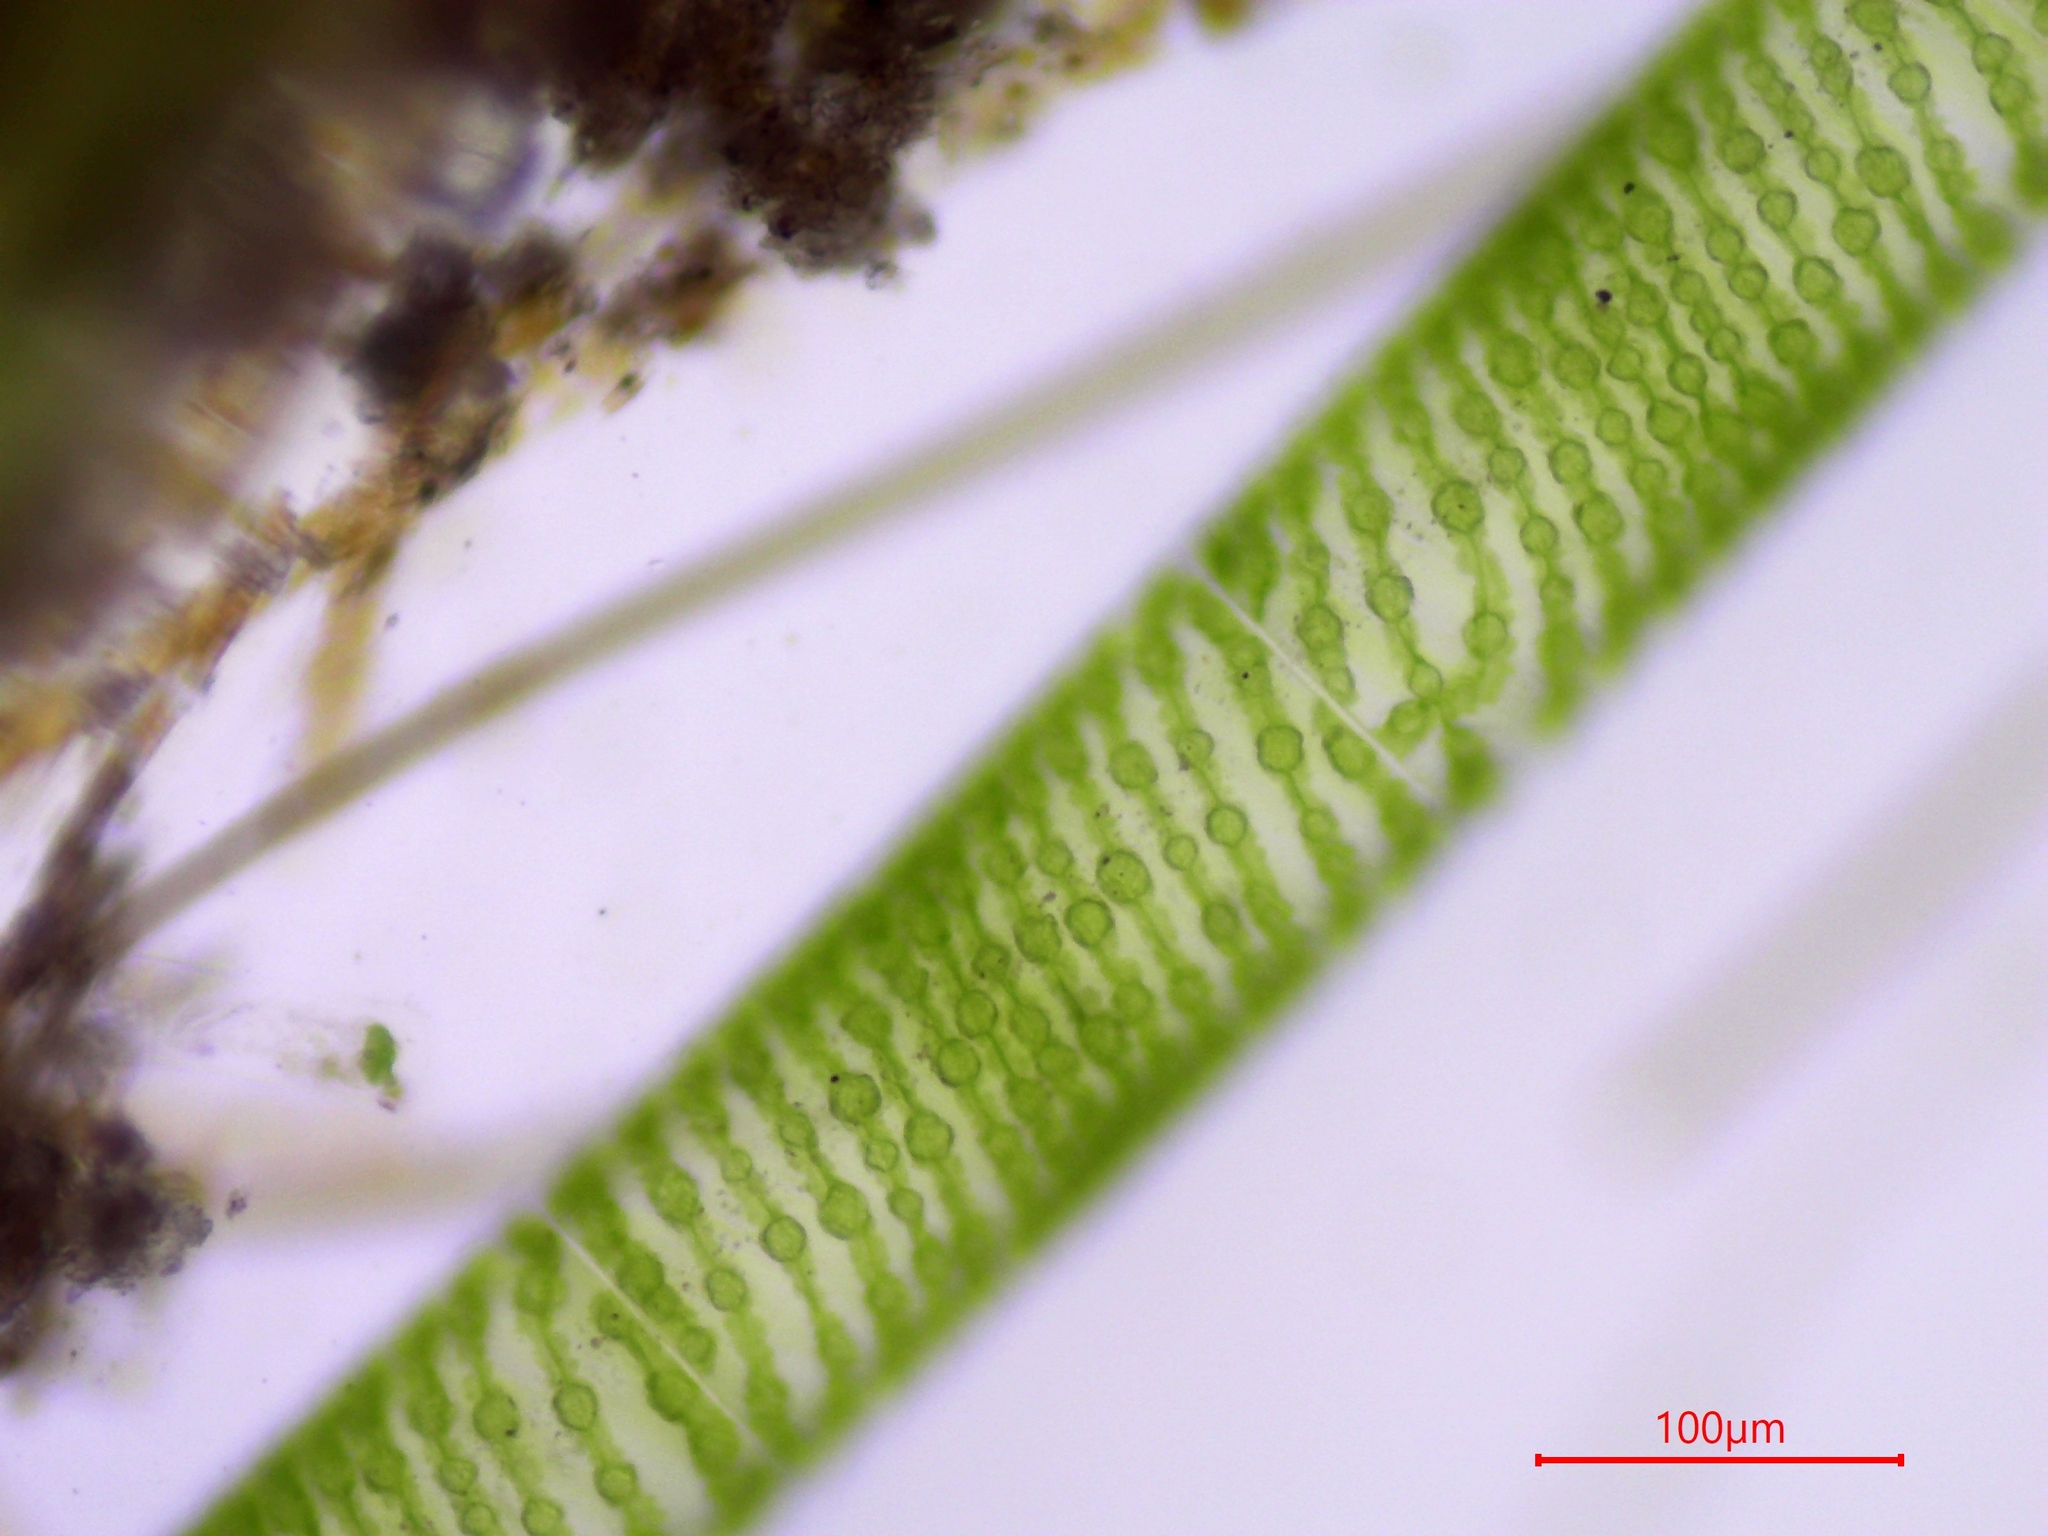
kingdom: Plantae
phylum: Charophyta
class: Zygnematophyceae
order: Zygnematales
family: Zygnemataceae
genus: Spirogyra
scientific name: Spirogyra
